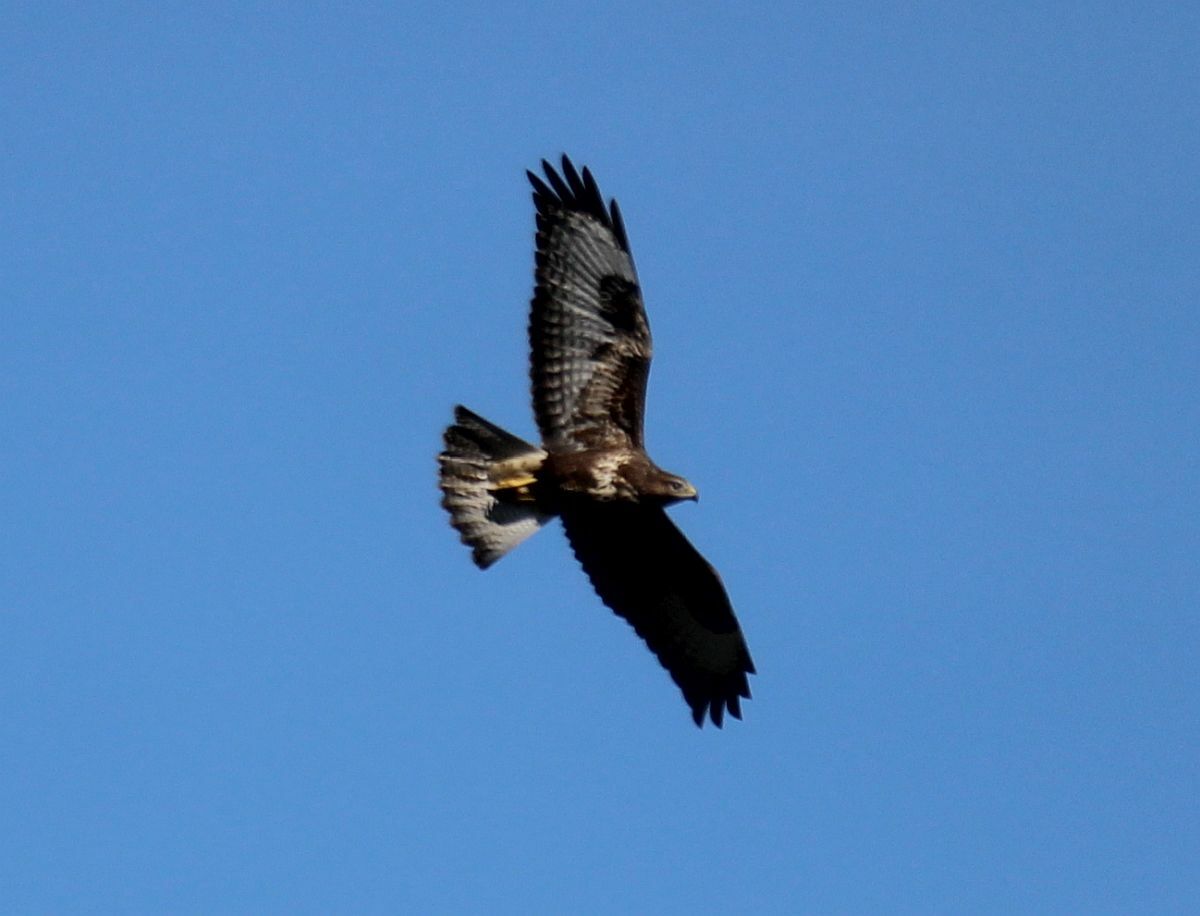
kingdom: Animalia
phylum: Chordata
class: Aves
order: Accipitriformes
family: Accipitridae
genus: Buteo
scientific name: Buteo buteo
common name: Common buzzard
